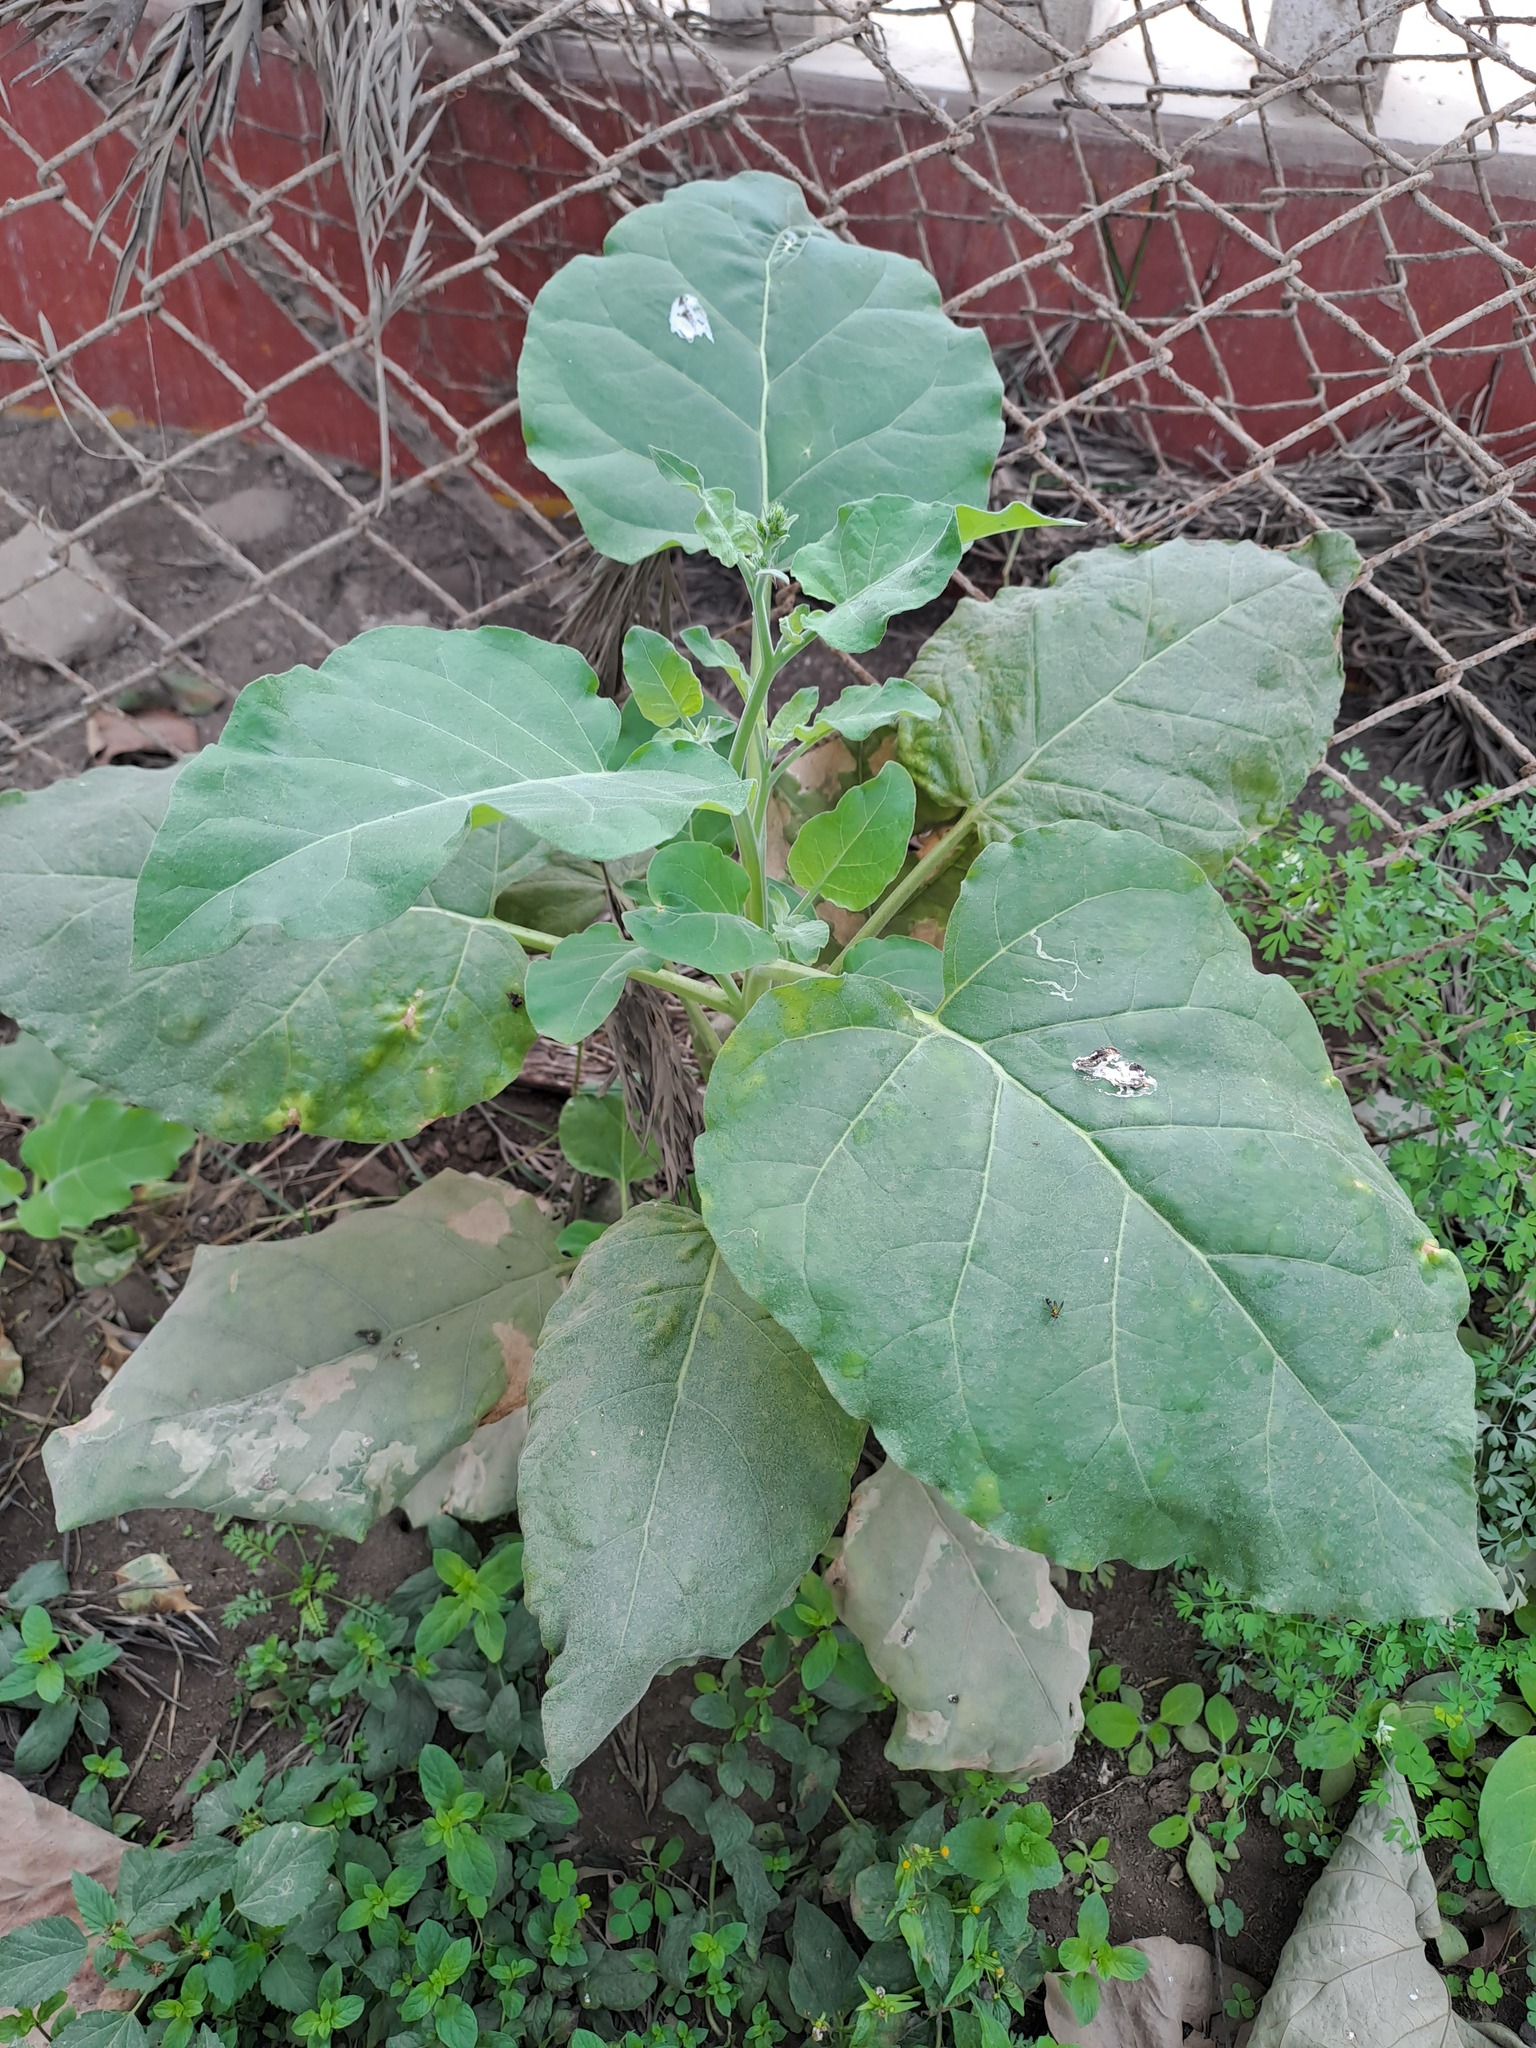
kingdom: Plantae
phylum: Tracheophyta
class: Magnoliopsida
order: Solanales
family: Solanaceae
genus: Nicotiana
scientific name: Nicotiana paniculata
